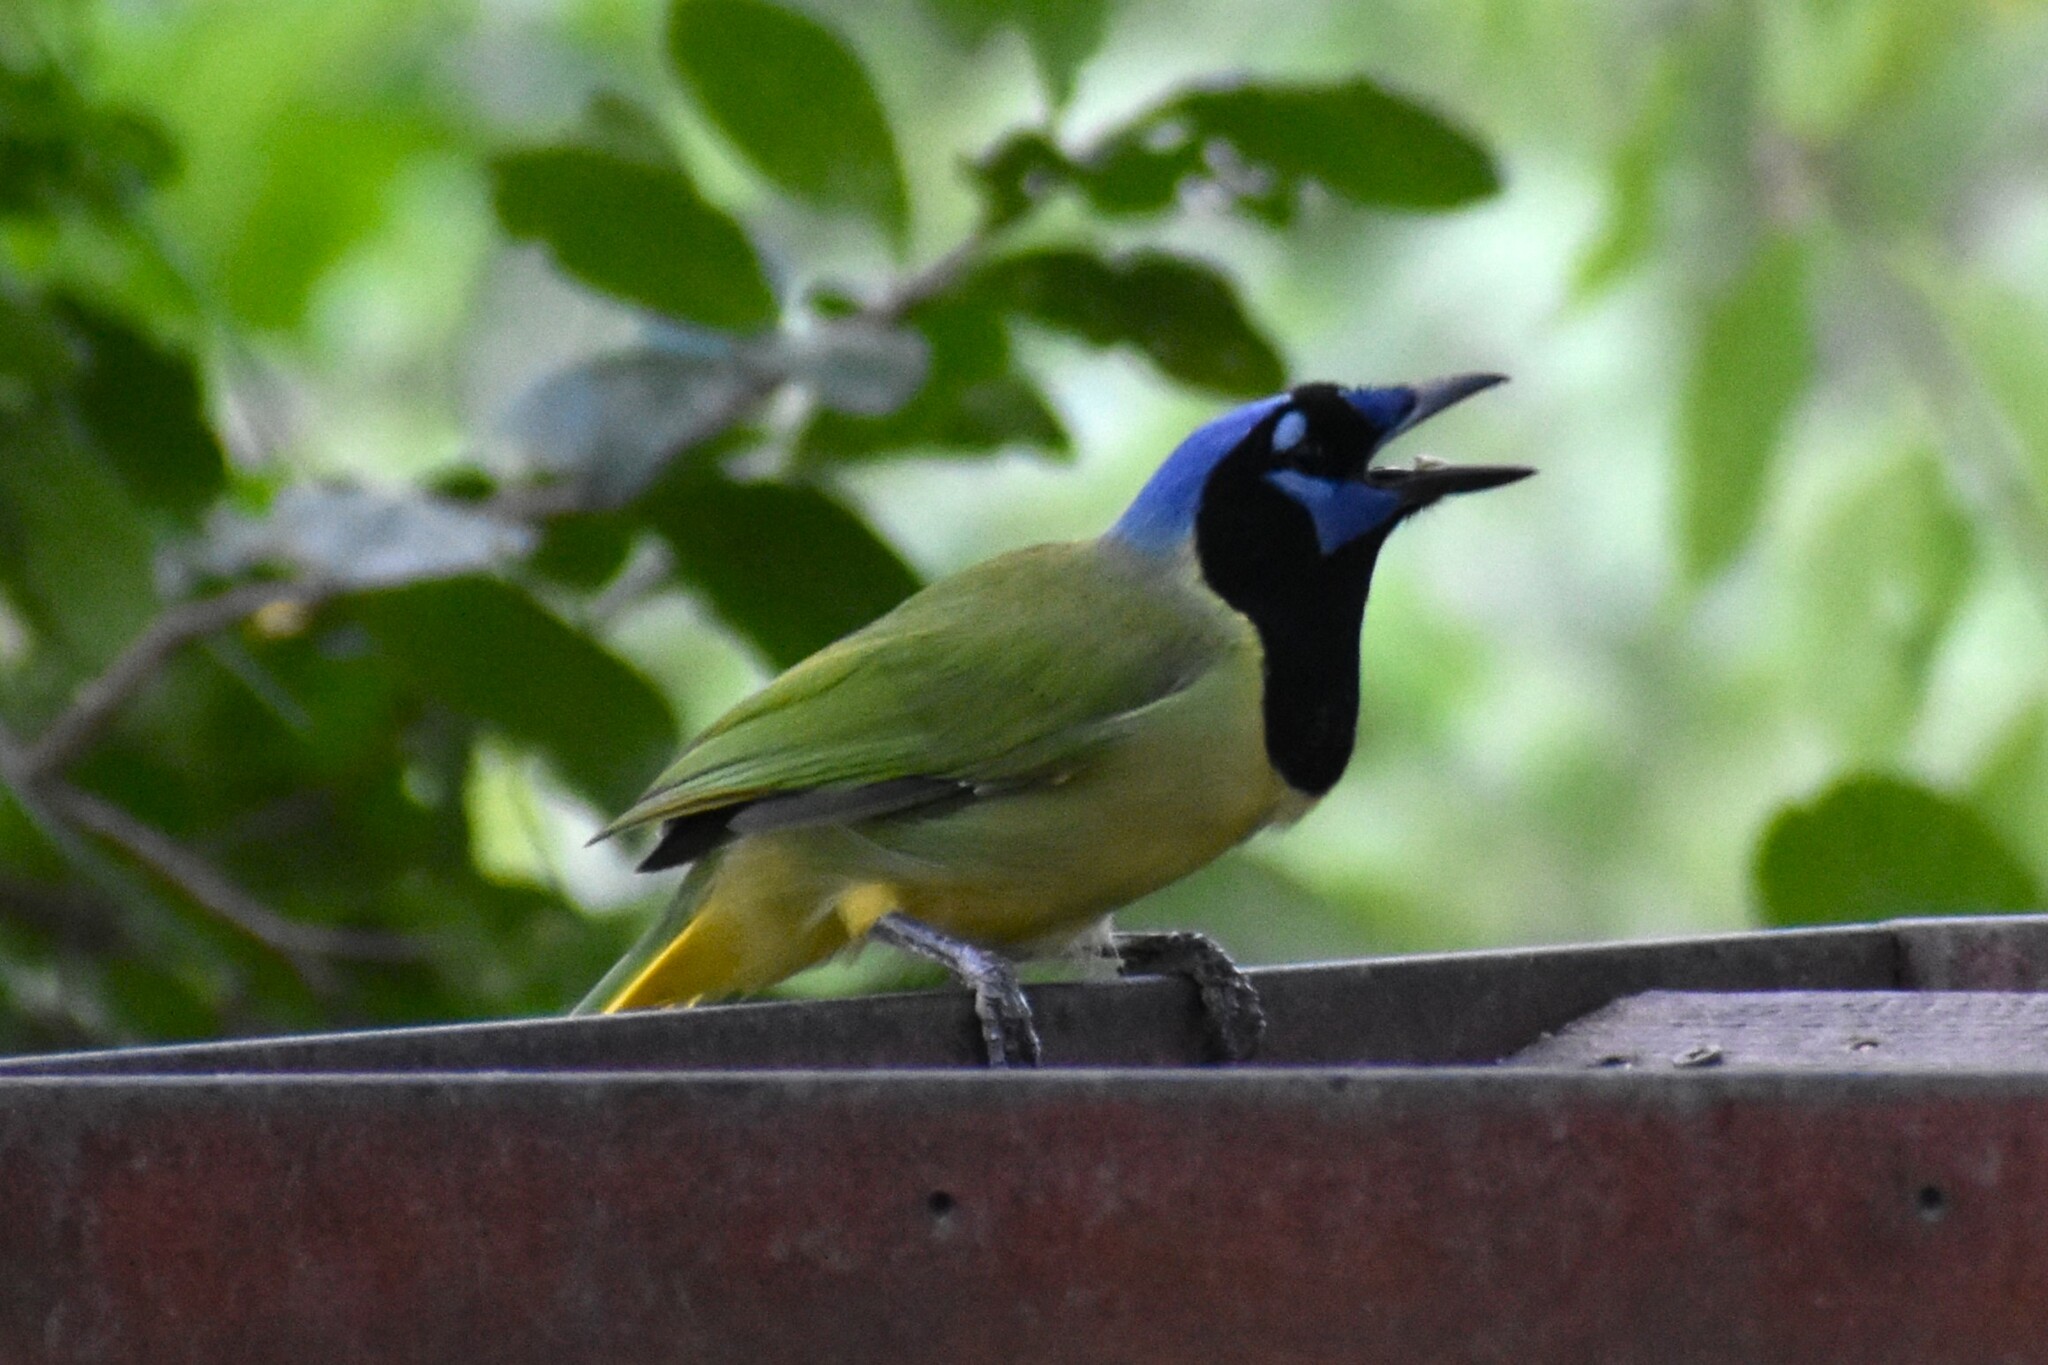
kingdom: Animalia
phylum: Chordata
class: Aves
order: Passeriformes
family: Corvidae
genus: Cyanocorax
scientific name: Cyanocorax yncas
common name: Green jay
